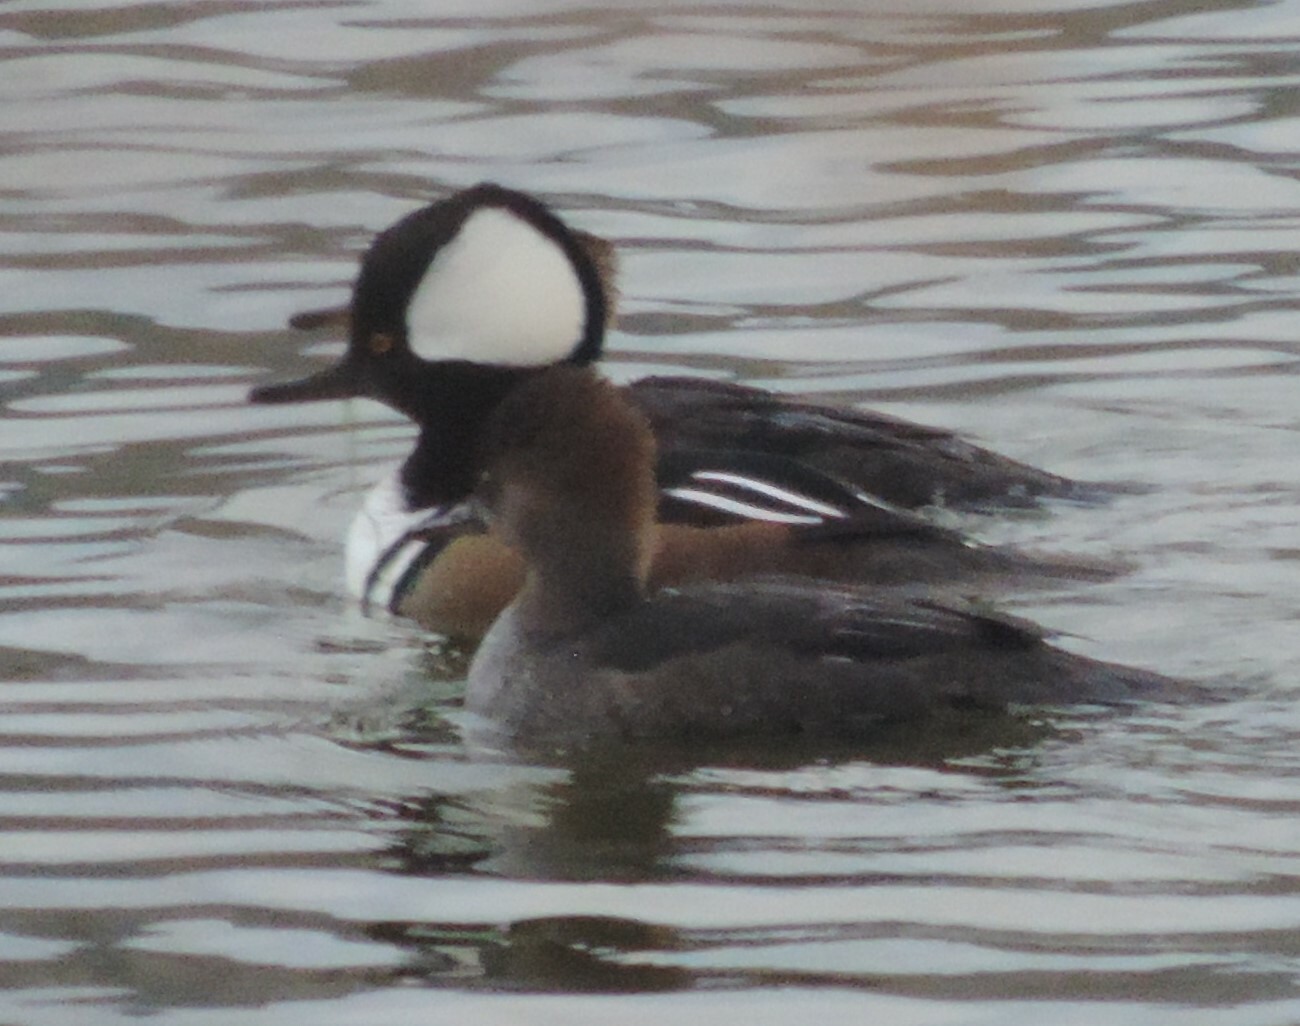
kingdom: Animalia
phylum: Chordata
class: Aves
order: Anseriformes
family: Anatidae
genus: Lophodytes
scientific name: Lophodytes cucullatus
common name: Hooded merganser
